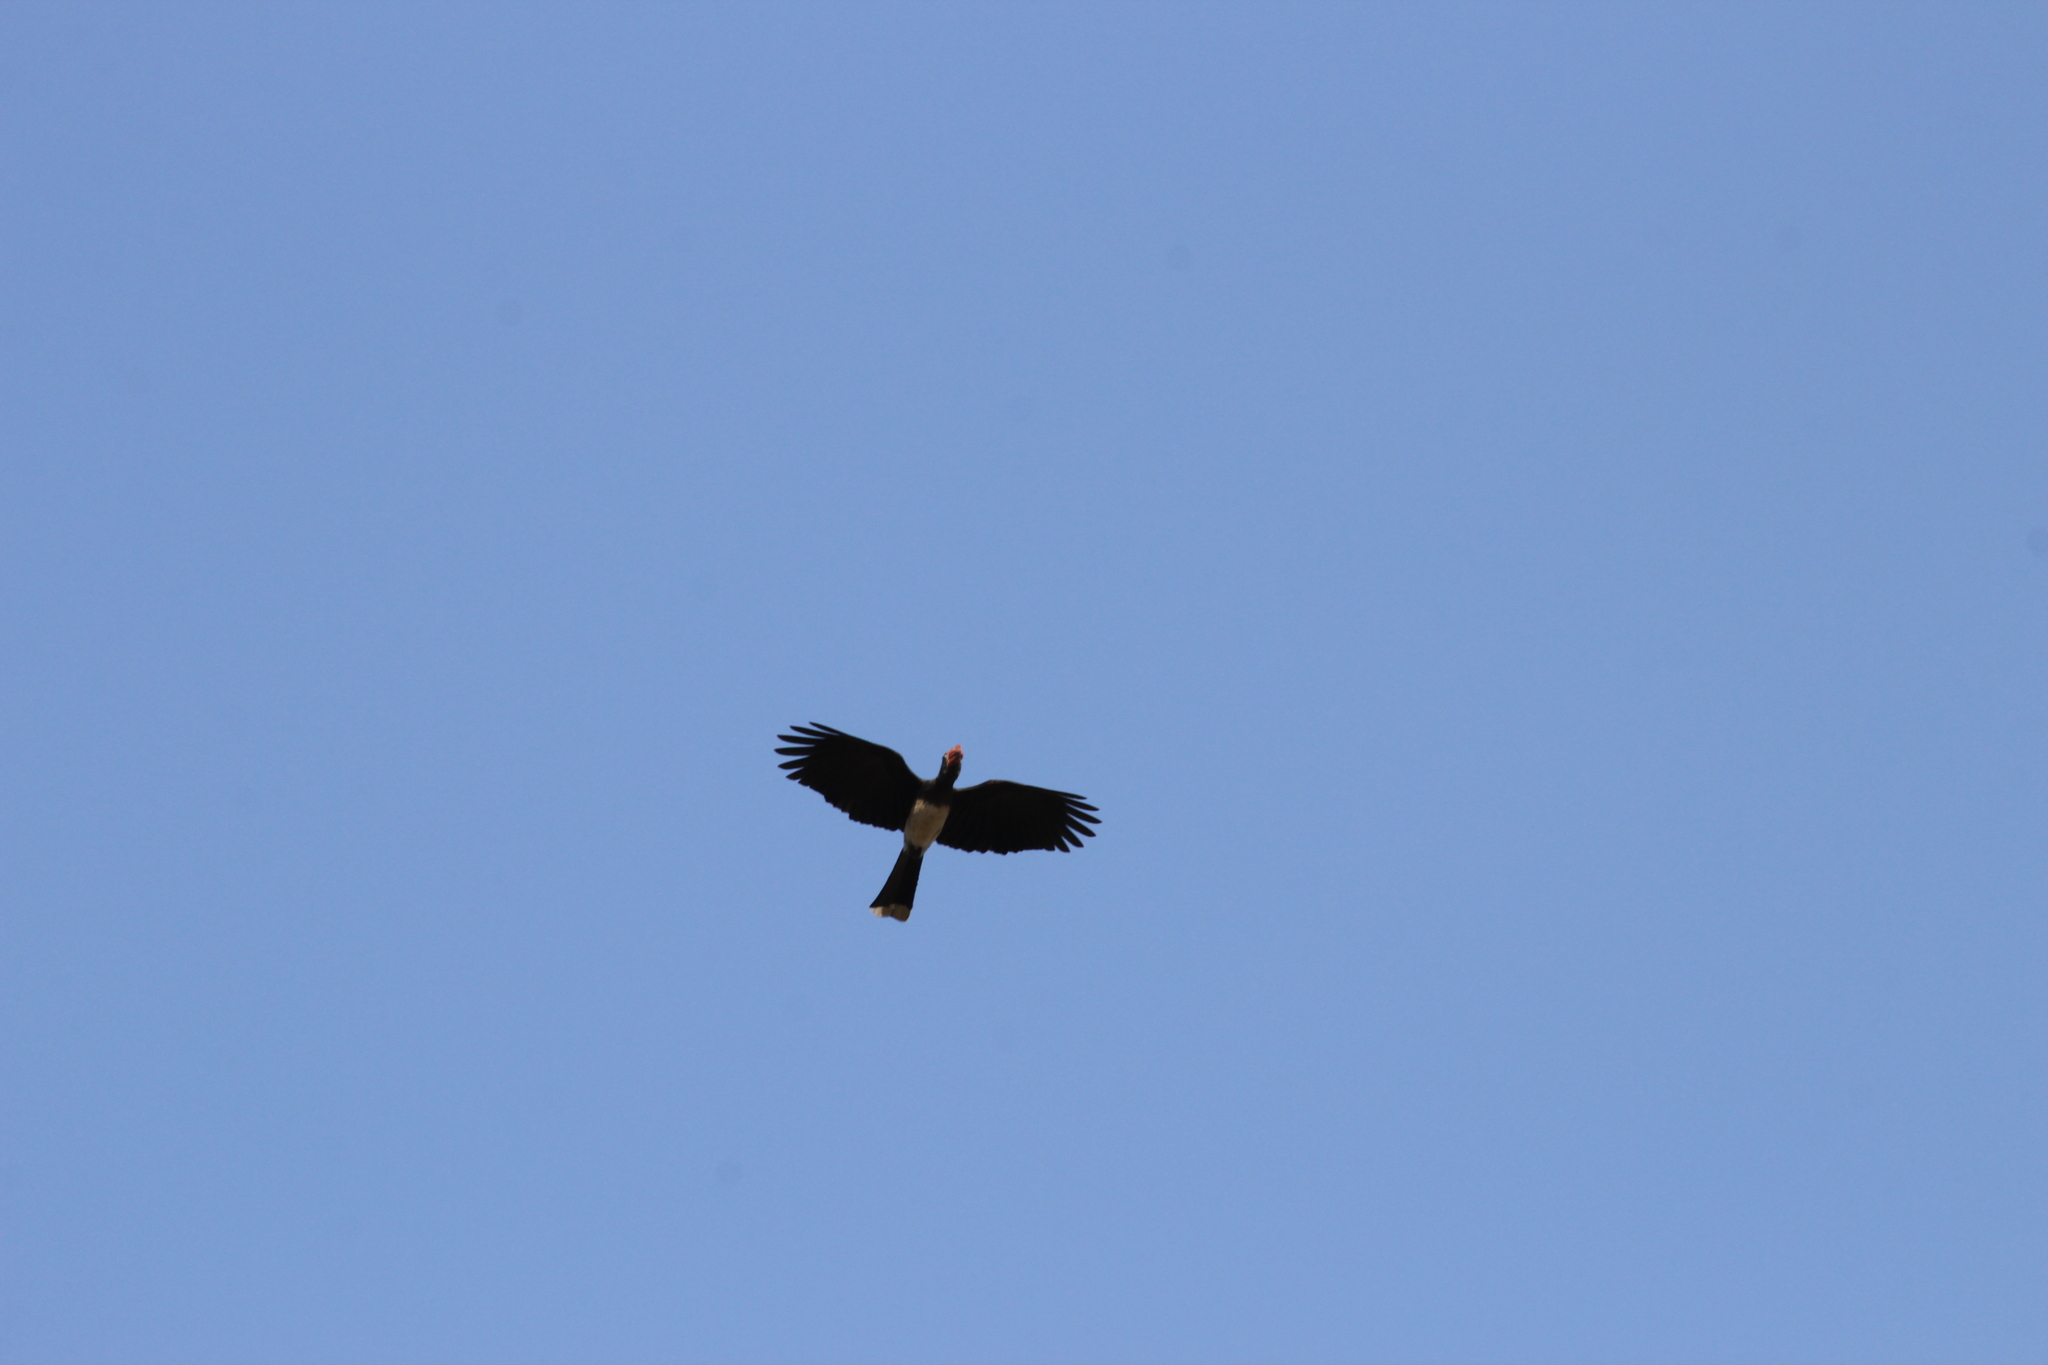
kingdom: Animalia
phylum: Chordata
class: Aves
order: Bucerotiformes
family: Bucerotidae
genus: Lophoceros
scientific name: Lophoceros alboterminatus
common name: Crowned hornbill
